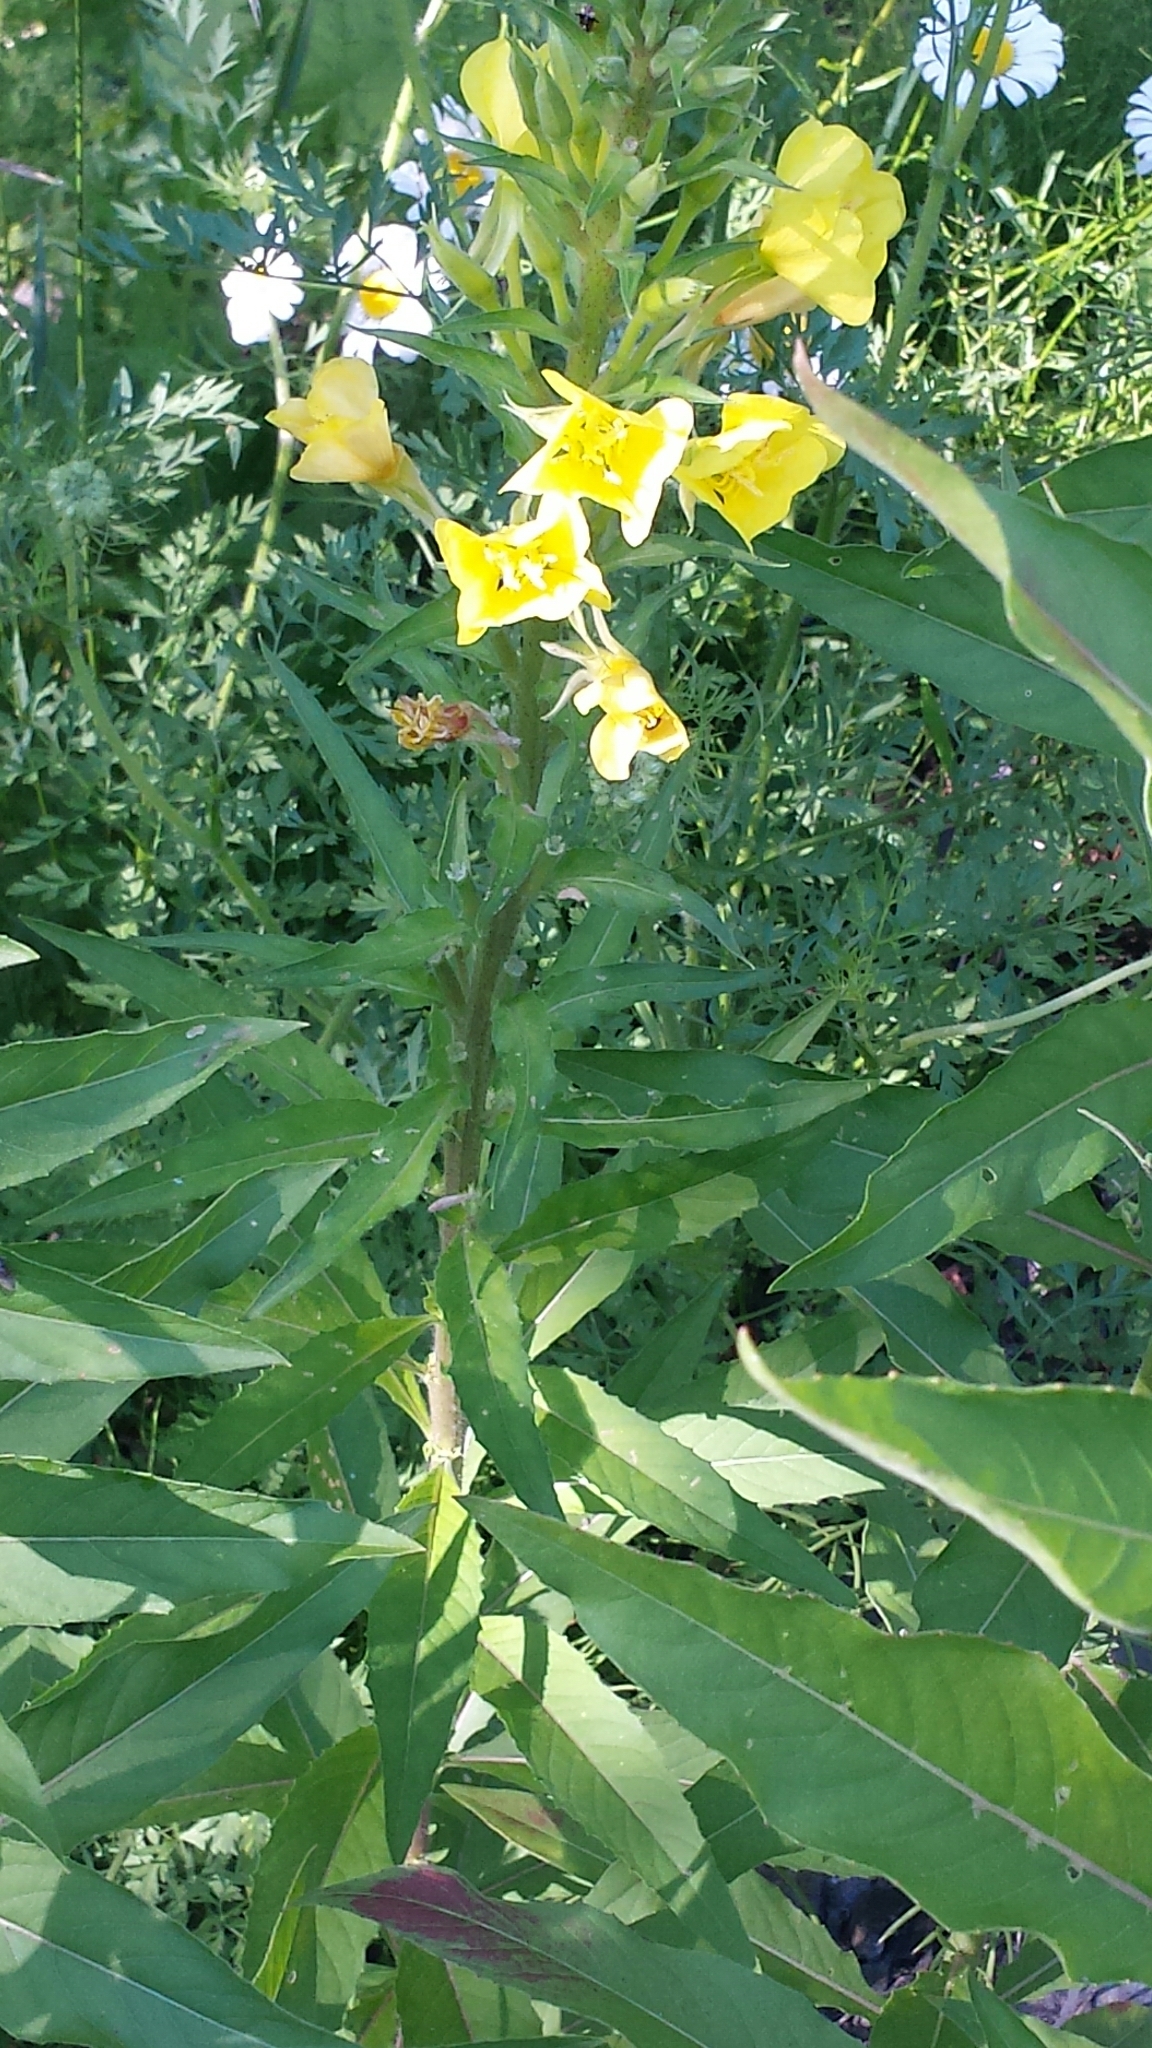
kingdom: Plantae
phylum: Tracheophyta
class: Magnoliopsida
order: Myrtales
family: Onagraceae
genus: Oenothera
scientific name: Oenothera biennis
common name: Common evening-primrose
